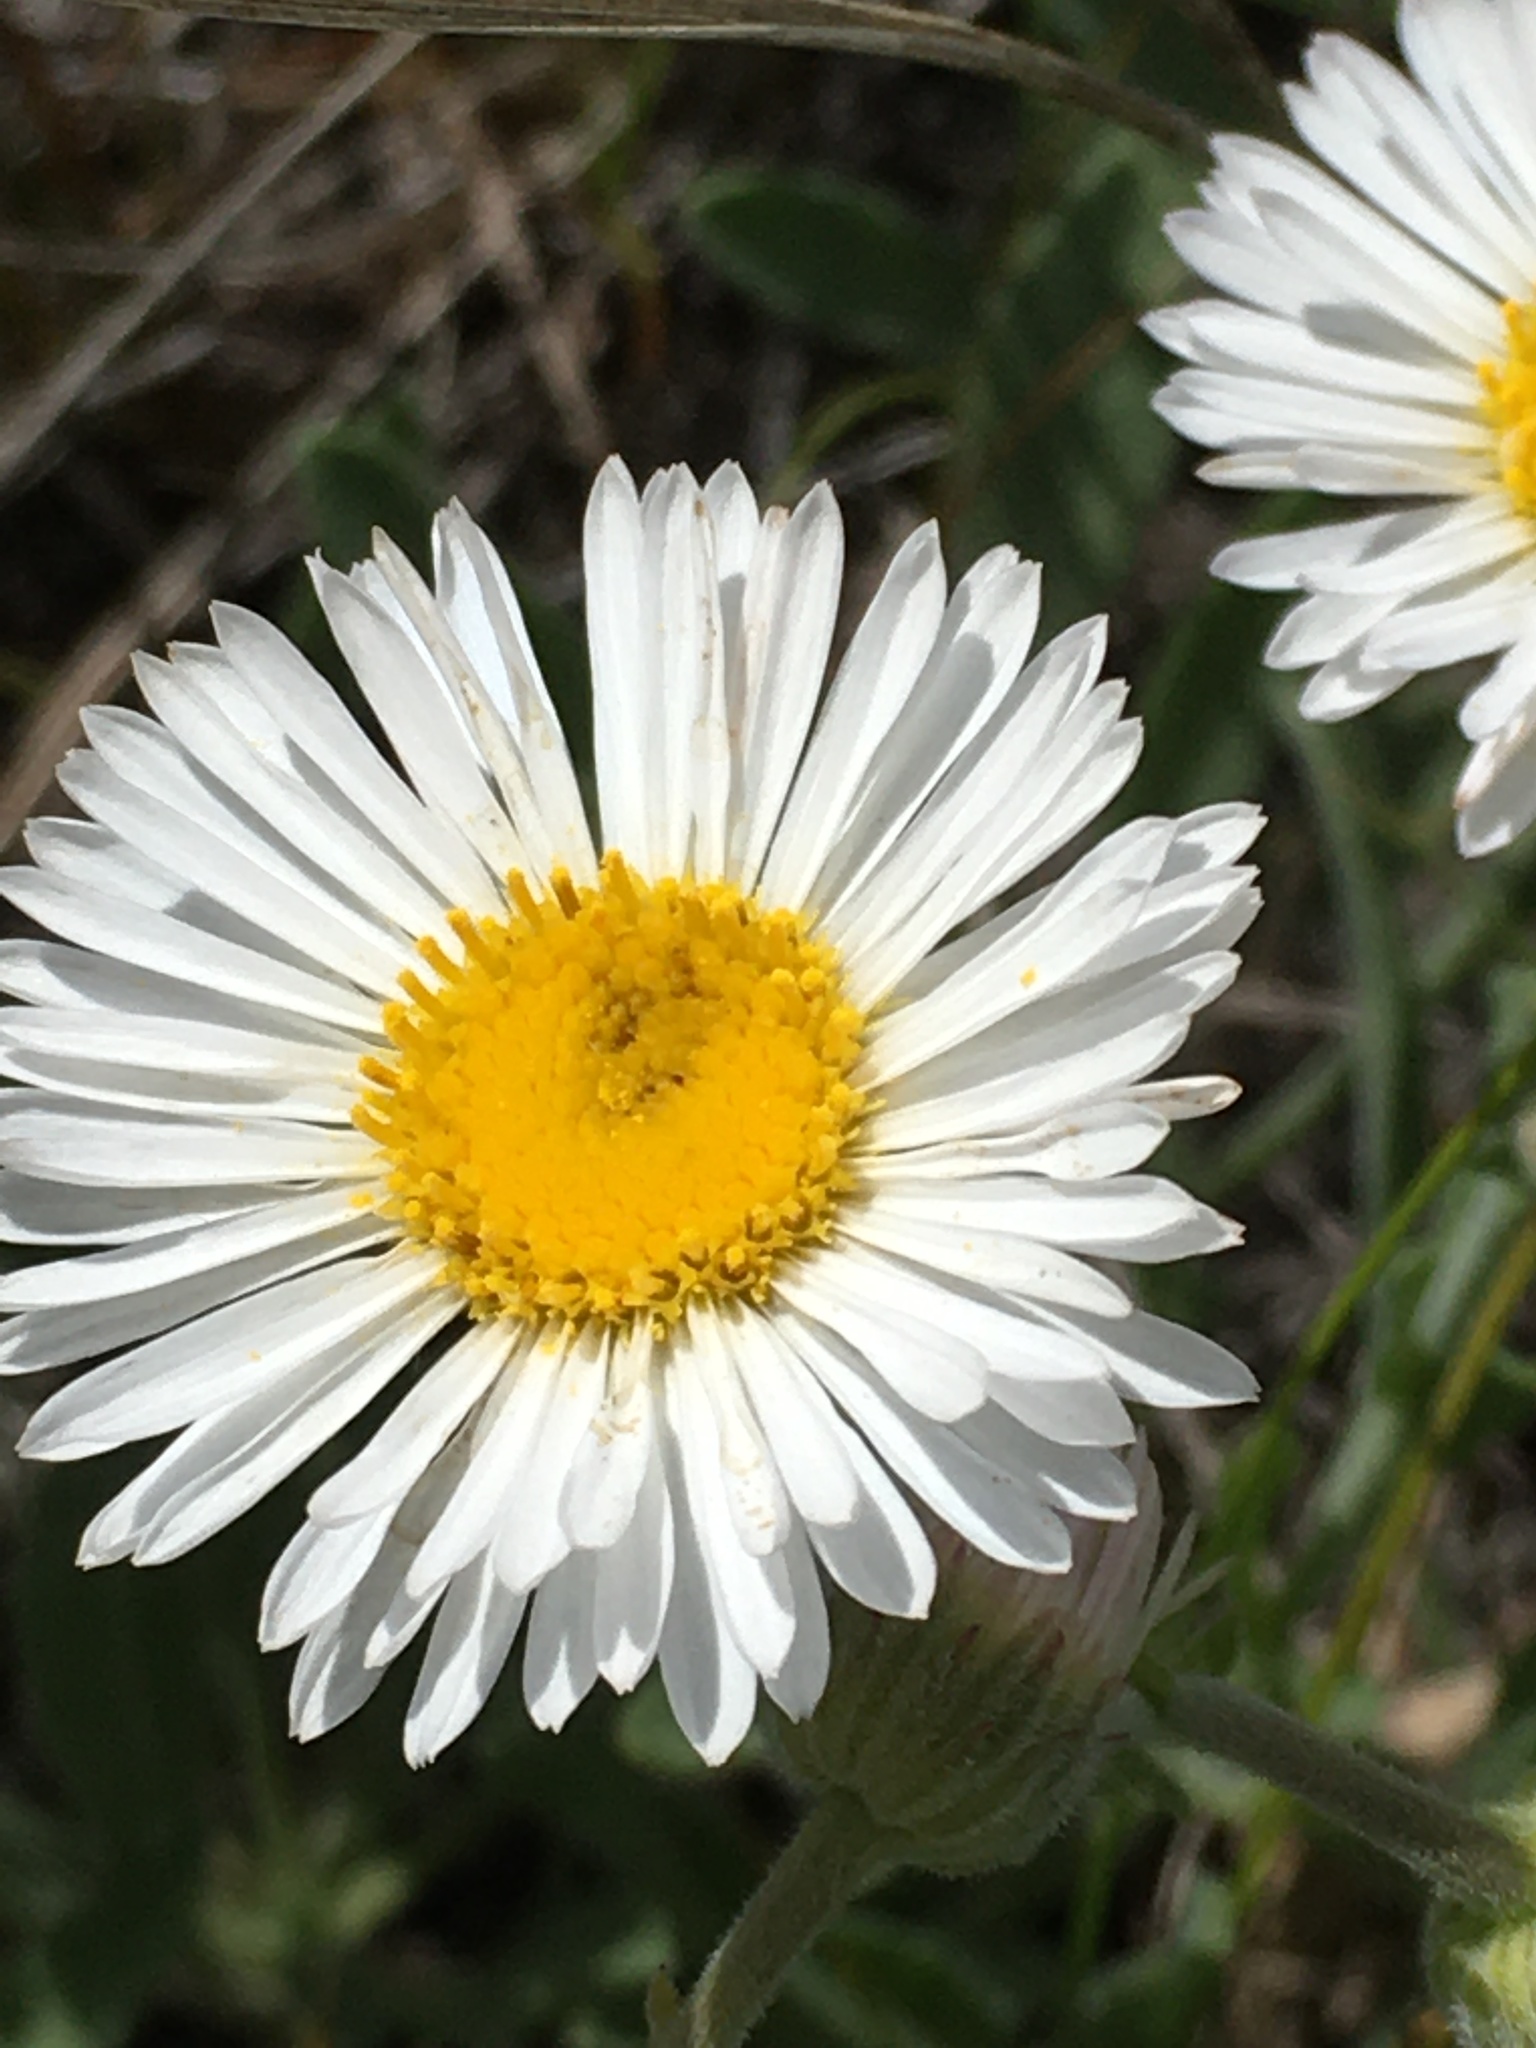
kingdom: Plantae
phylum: Tracheophyta
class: Magnoliopsida
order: Asterales
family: Asteraceae
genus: Erigeron
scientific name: Erigeron caespitosus
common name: Tufted fleabane
